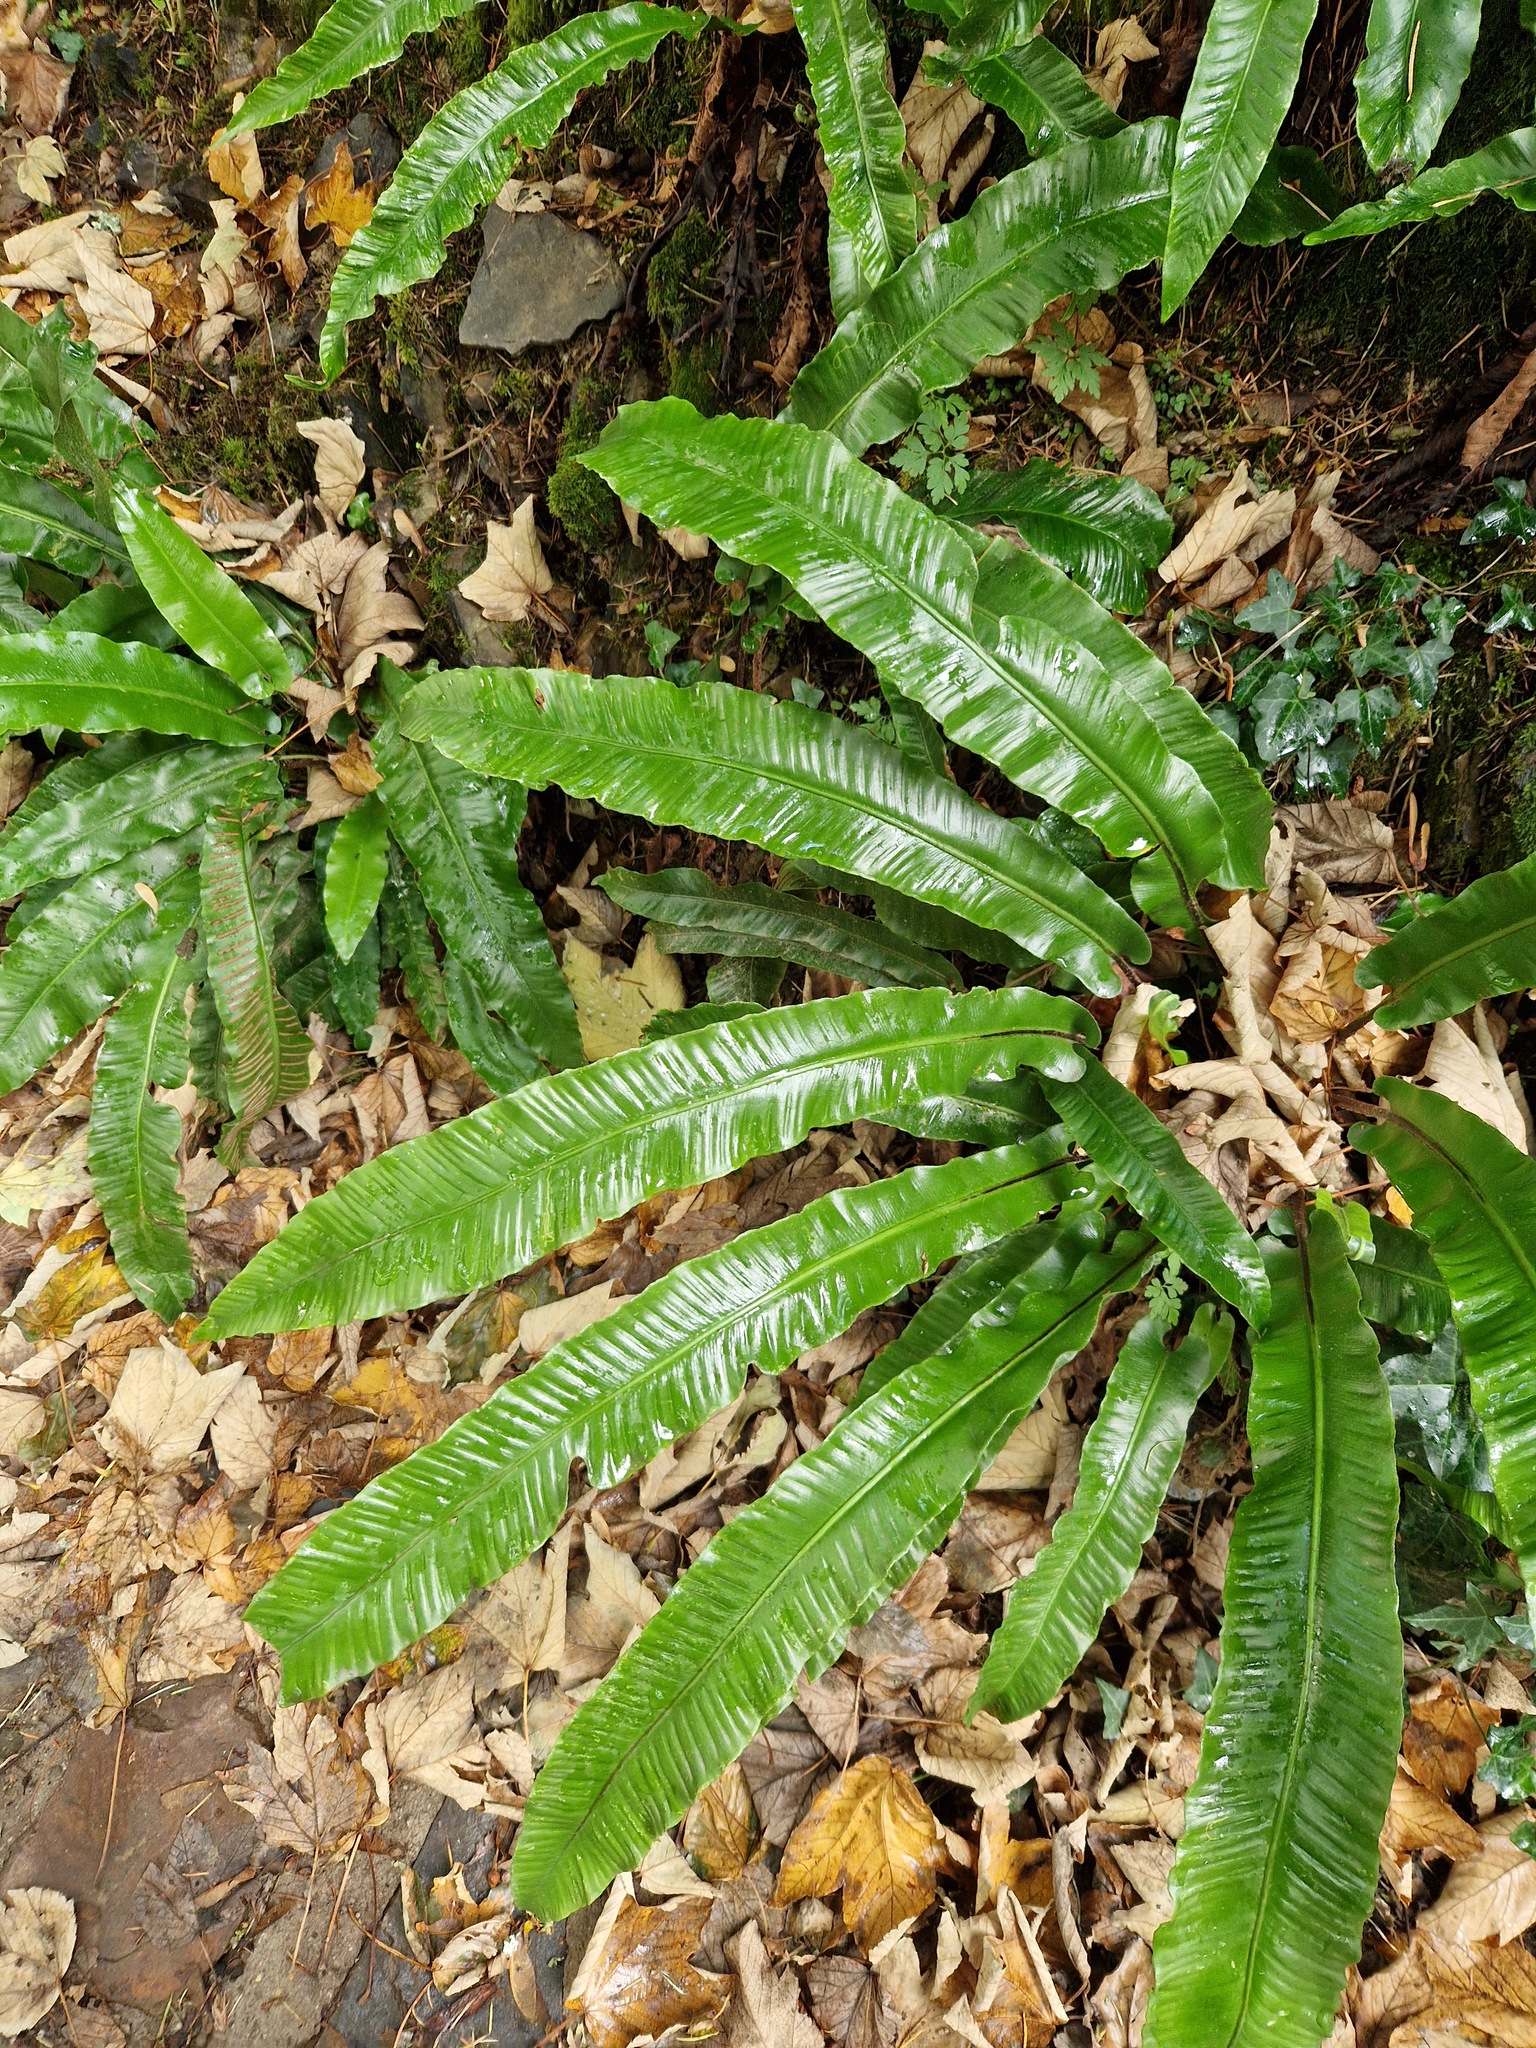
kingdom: Plantae
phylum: Tracheophyta
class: Polypodiopsida
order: Polypodiales
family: Aspleniaceae
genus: Asplenium
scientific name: Asplenium scolopendrium
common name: Hart's-tongue fern
